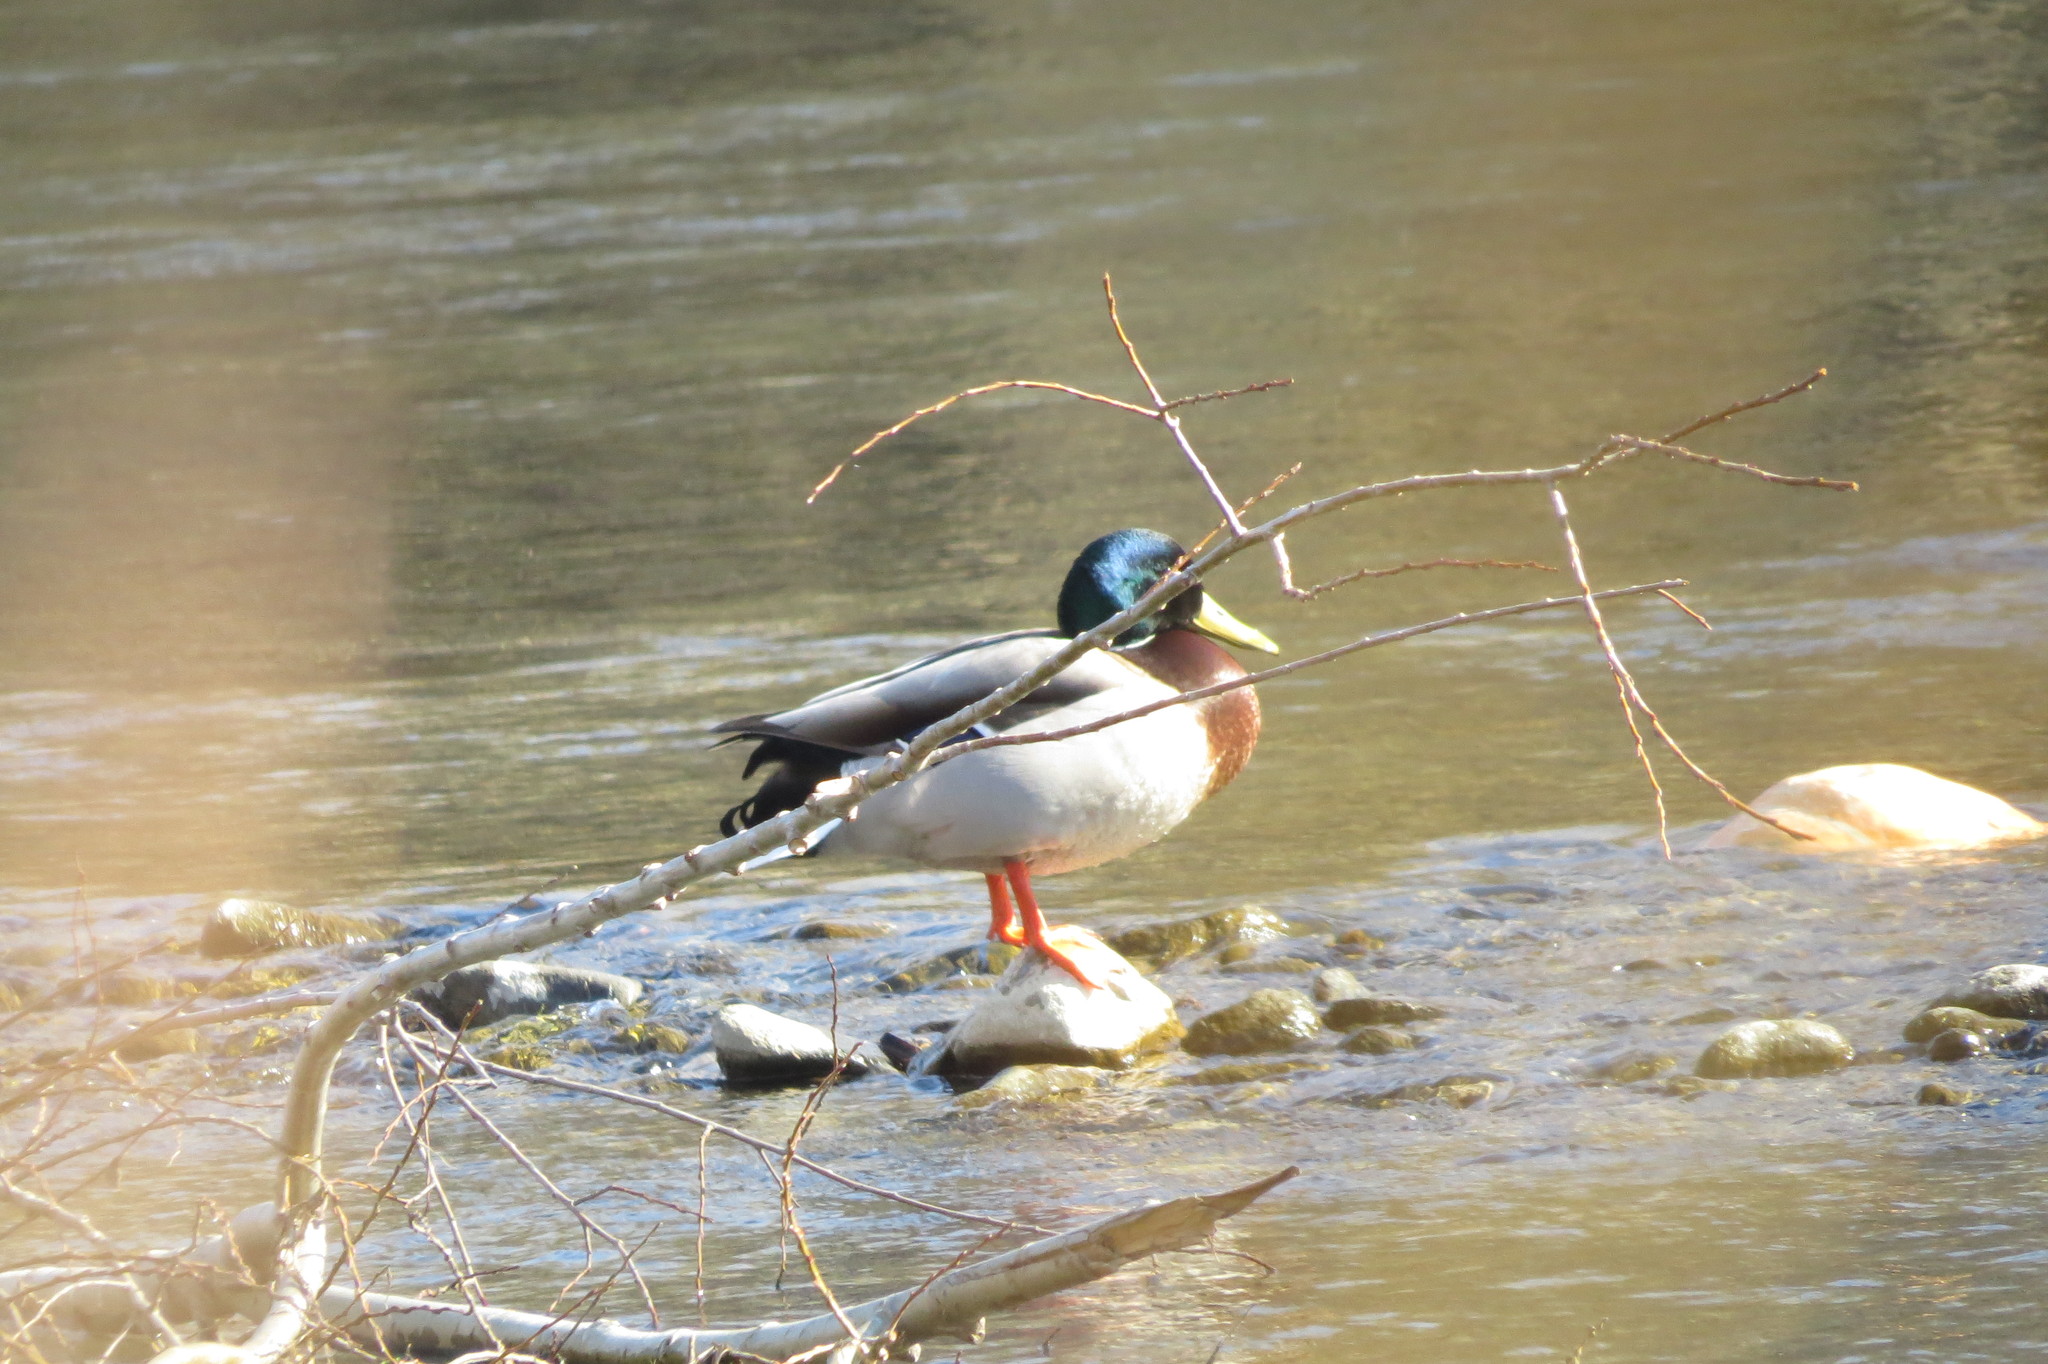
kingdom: Animalia
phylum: Chordata
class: Aves
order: Anseriformes
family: Anatidae
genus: Anas
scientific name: Anas platyrhynchos
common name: Mallard
